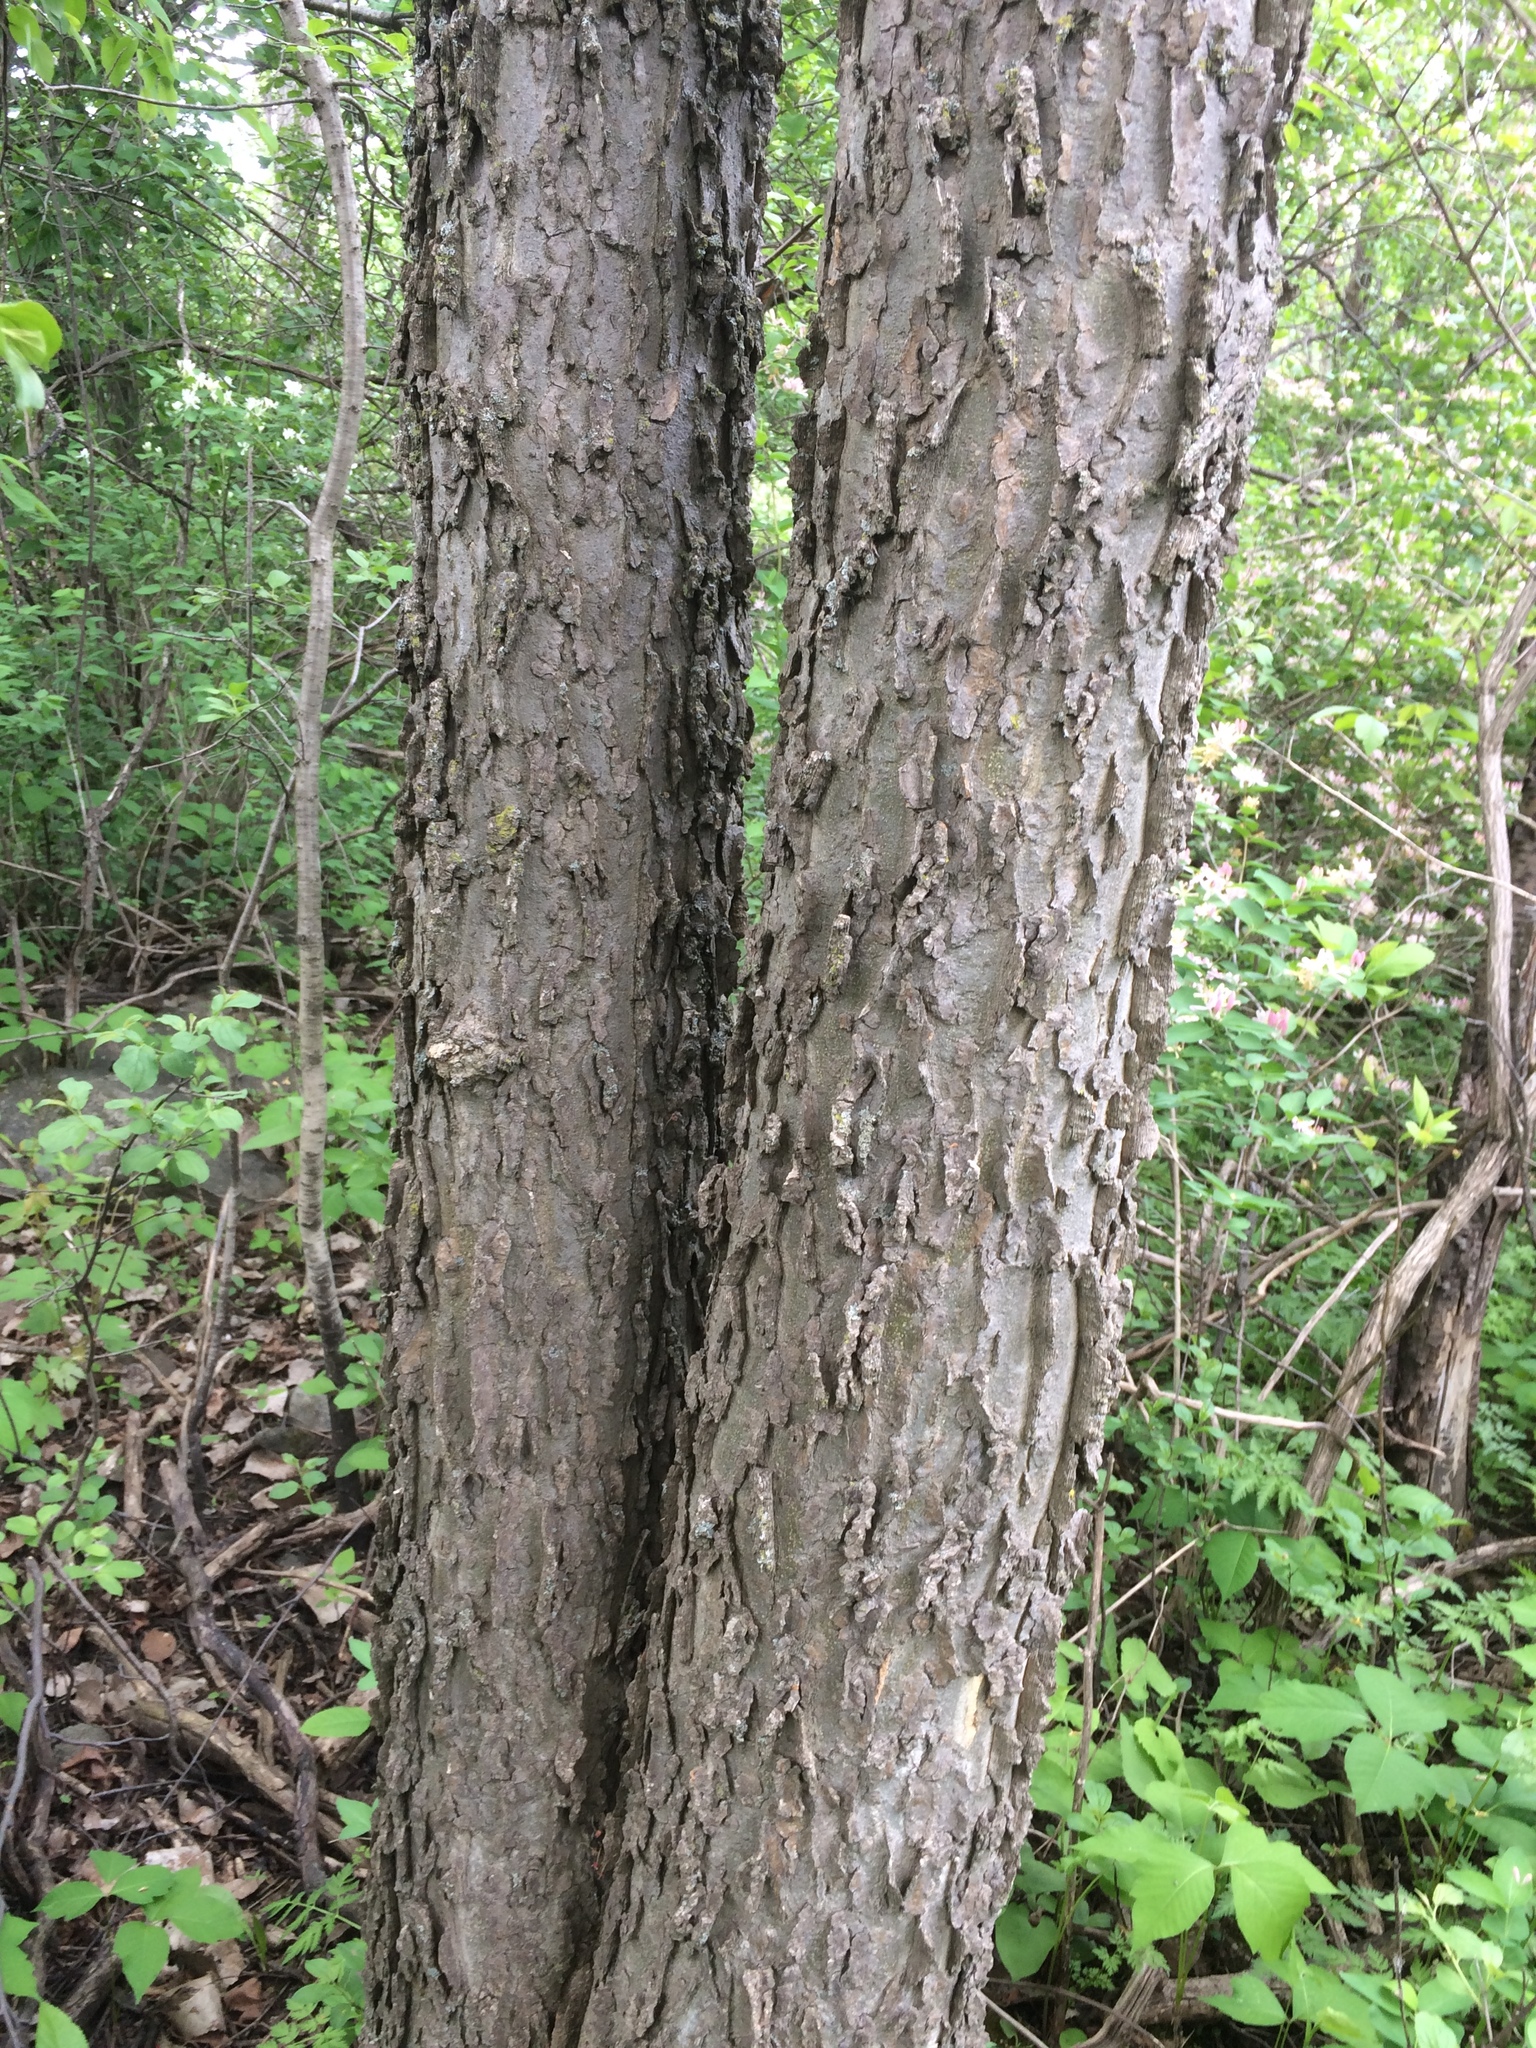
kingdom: Plantae
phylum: Tracheophyta
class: Magnoliopsida
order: Rosales
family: Cannabaceae
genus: Celtis
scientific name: Celtis occidentalis
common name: Common hackberry
